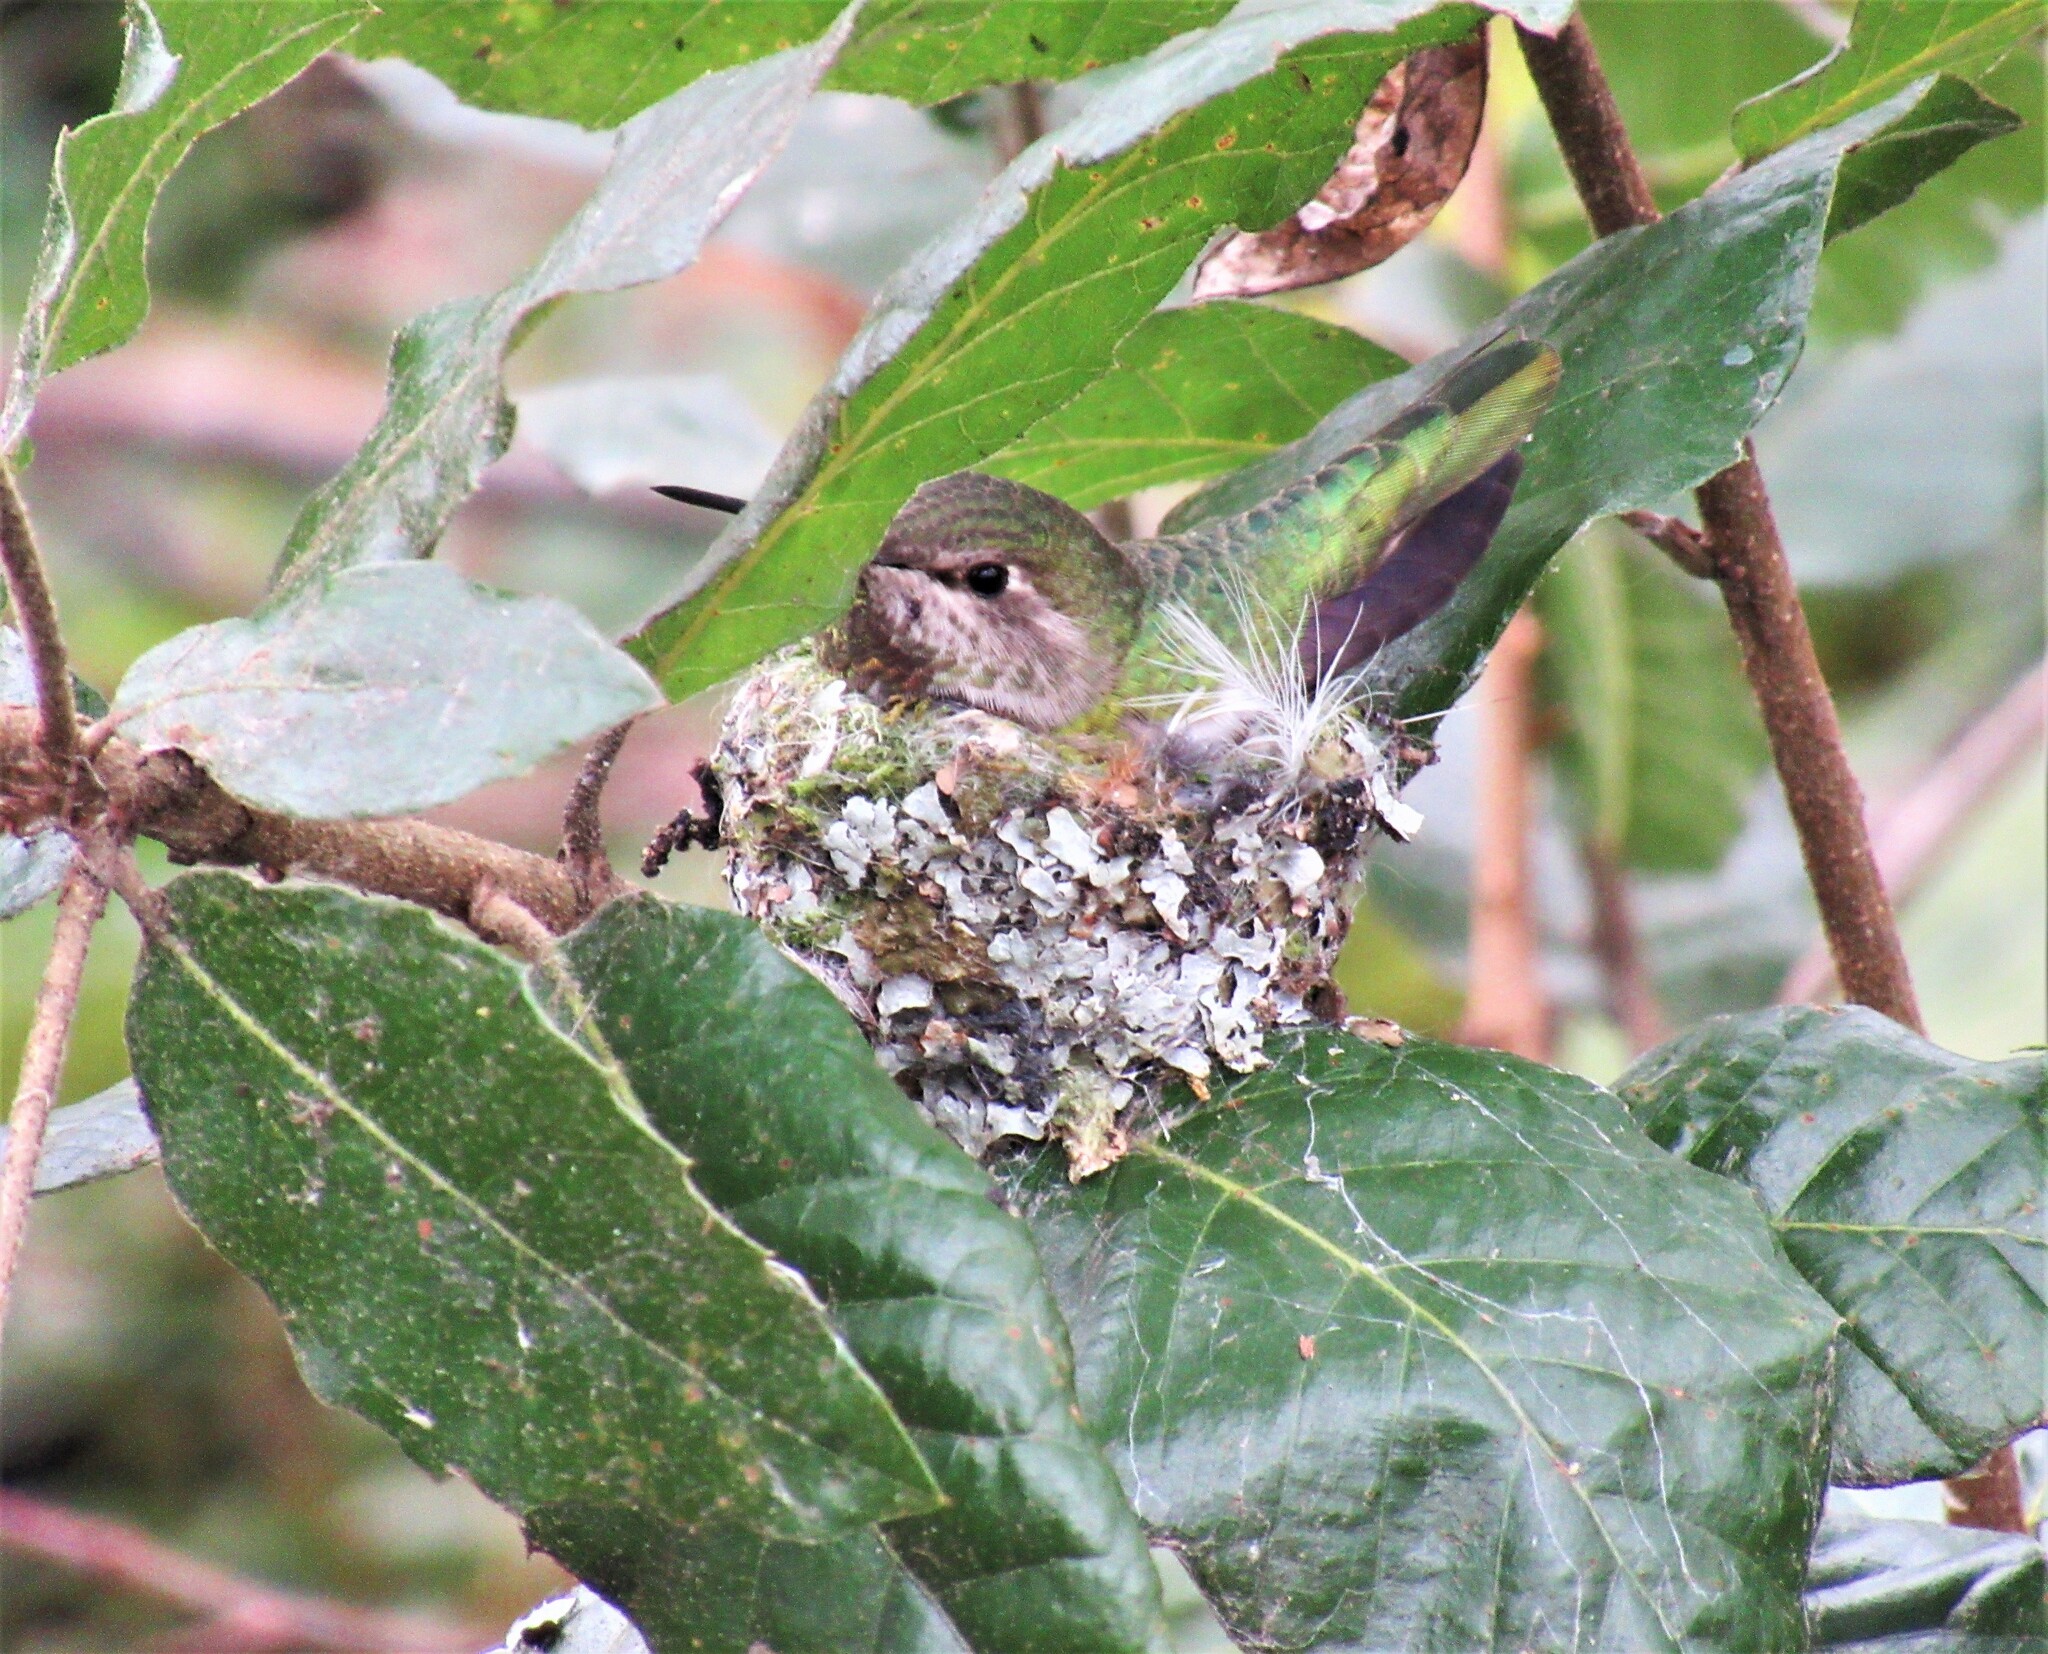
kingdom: Animalia
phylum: Chordata
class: Aves
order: Apodiformes
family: Trochilidae
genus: Calypte
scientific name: Calypte anna
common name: Anna's hummingbird
